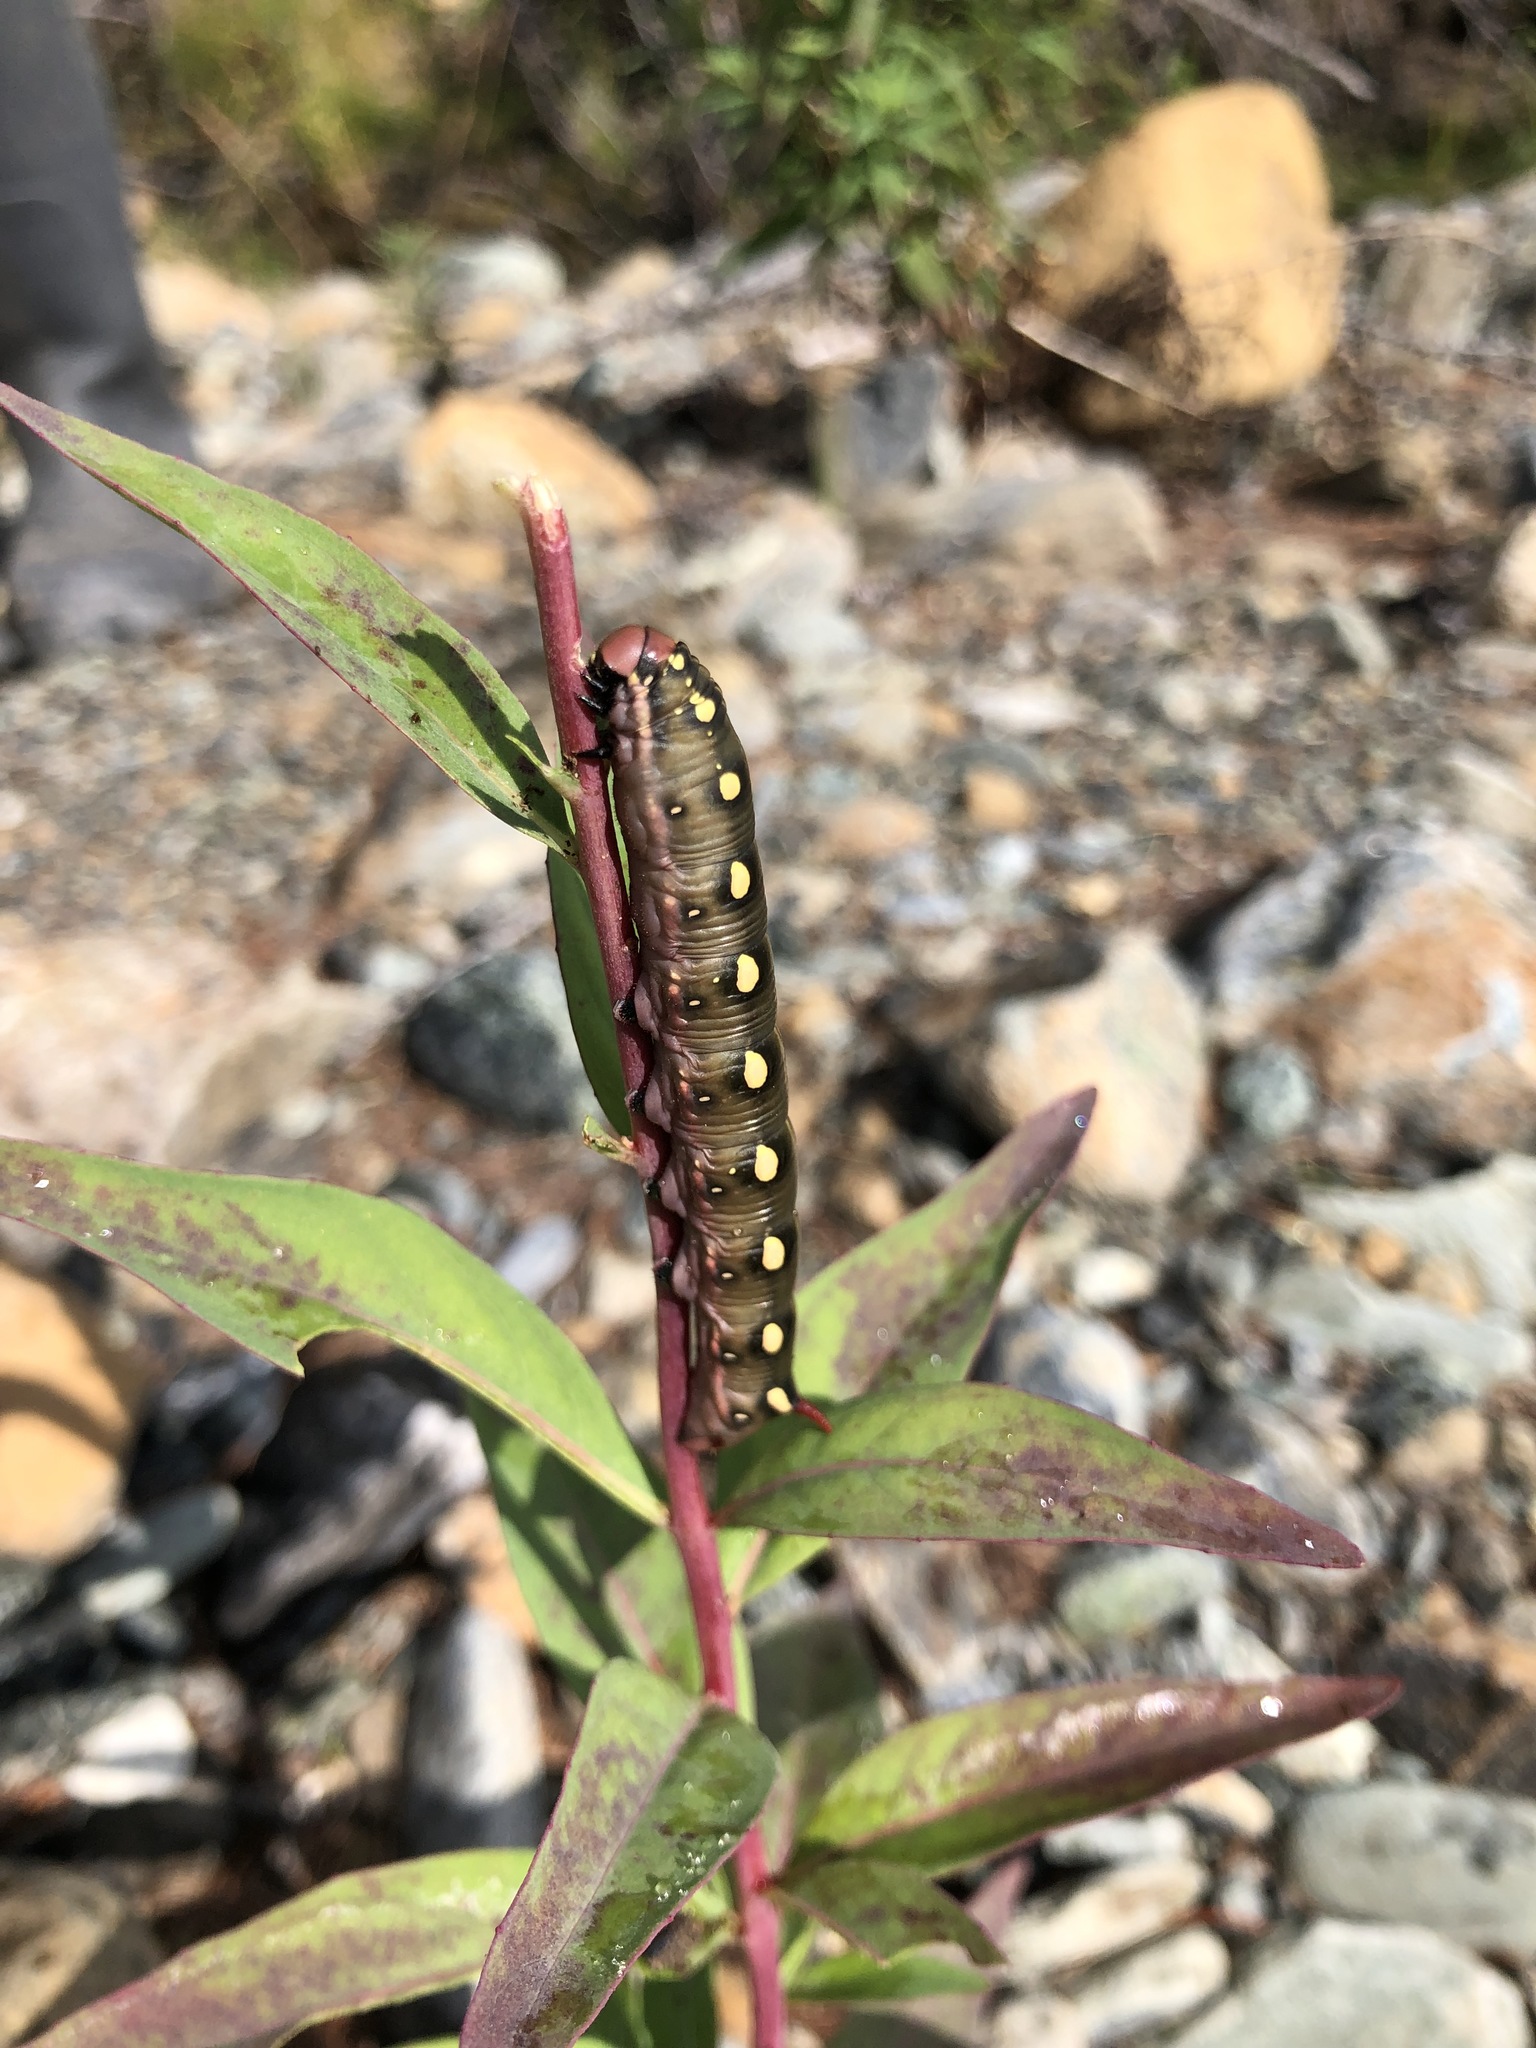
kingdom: Animalia
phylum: Arthropoda
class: Insecta
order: Lepidoptera
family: Sphingidae
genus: Hyles
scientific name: Hyles gallii
